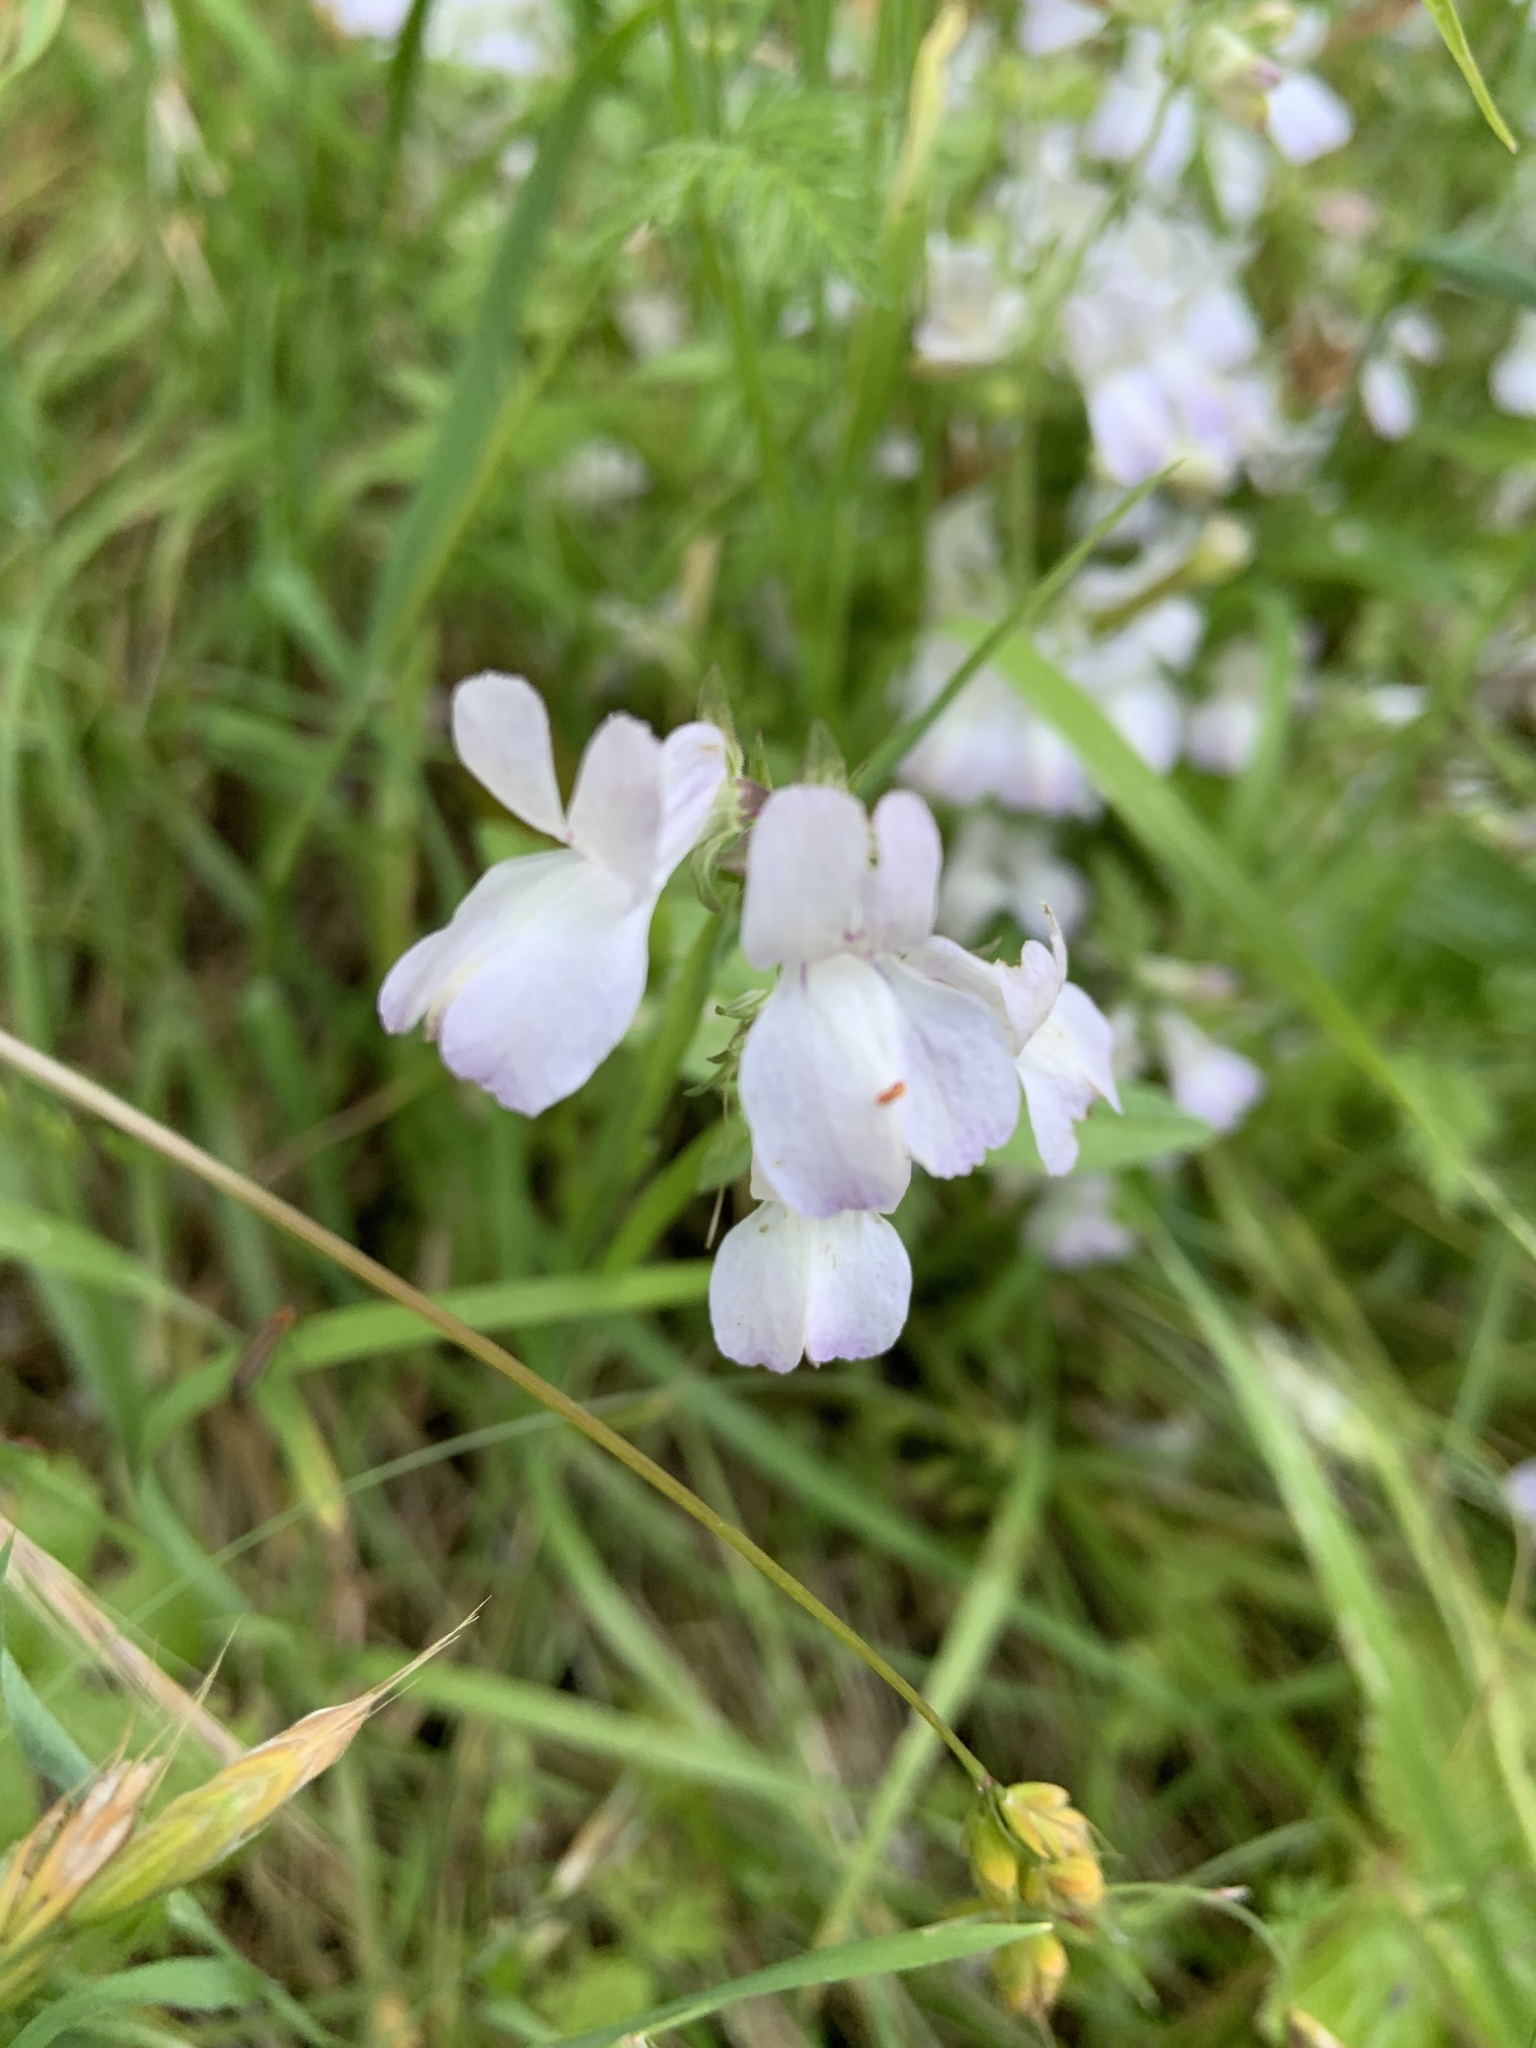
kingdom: Plantae
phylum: Tracheophyta
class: Magnoliopsida
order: Lamiales
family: Plantaginaceae
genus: Collinsia
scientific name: Collinsia heterophylla
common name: Chinese-houses
